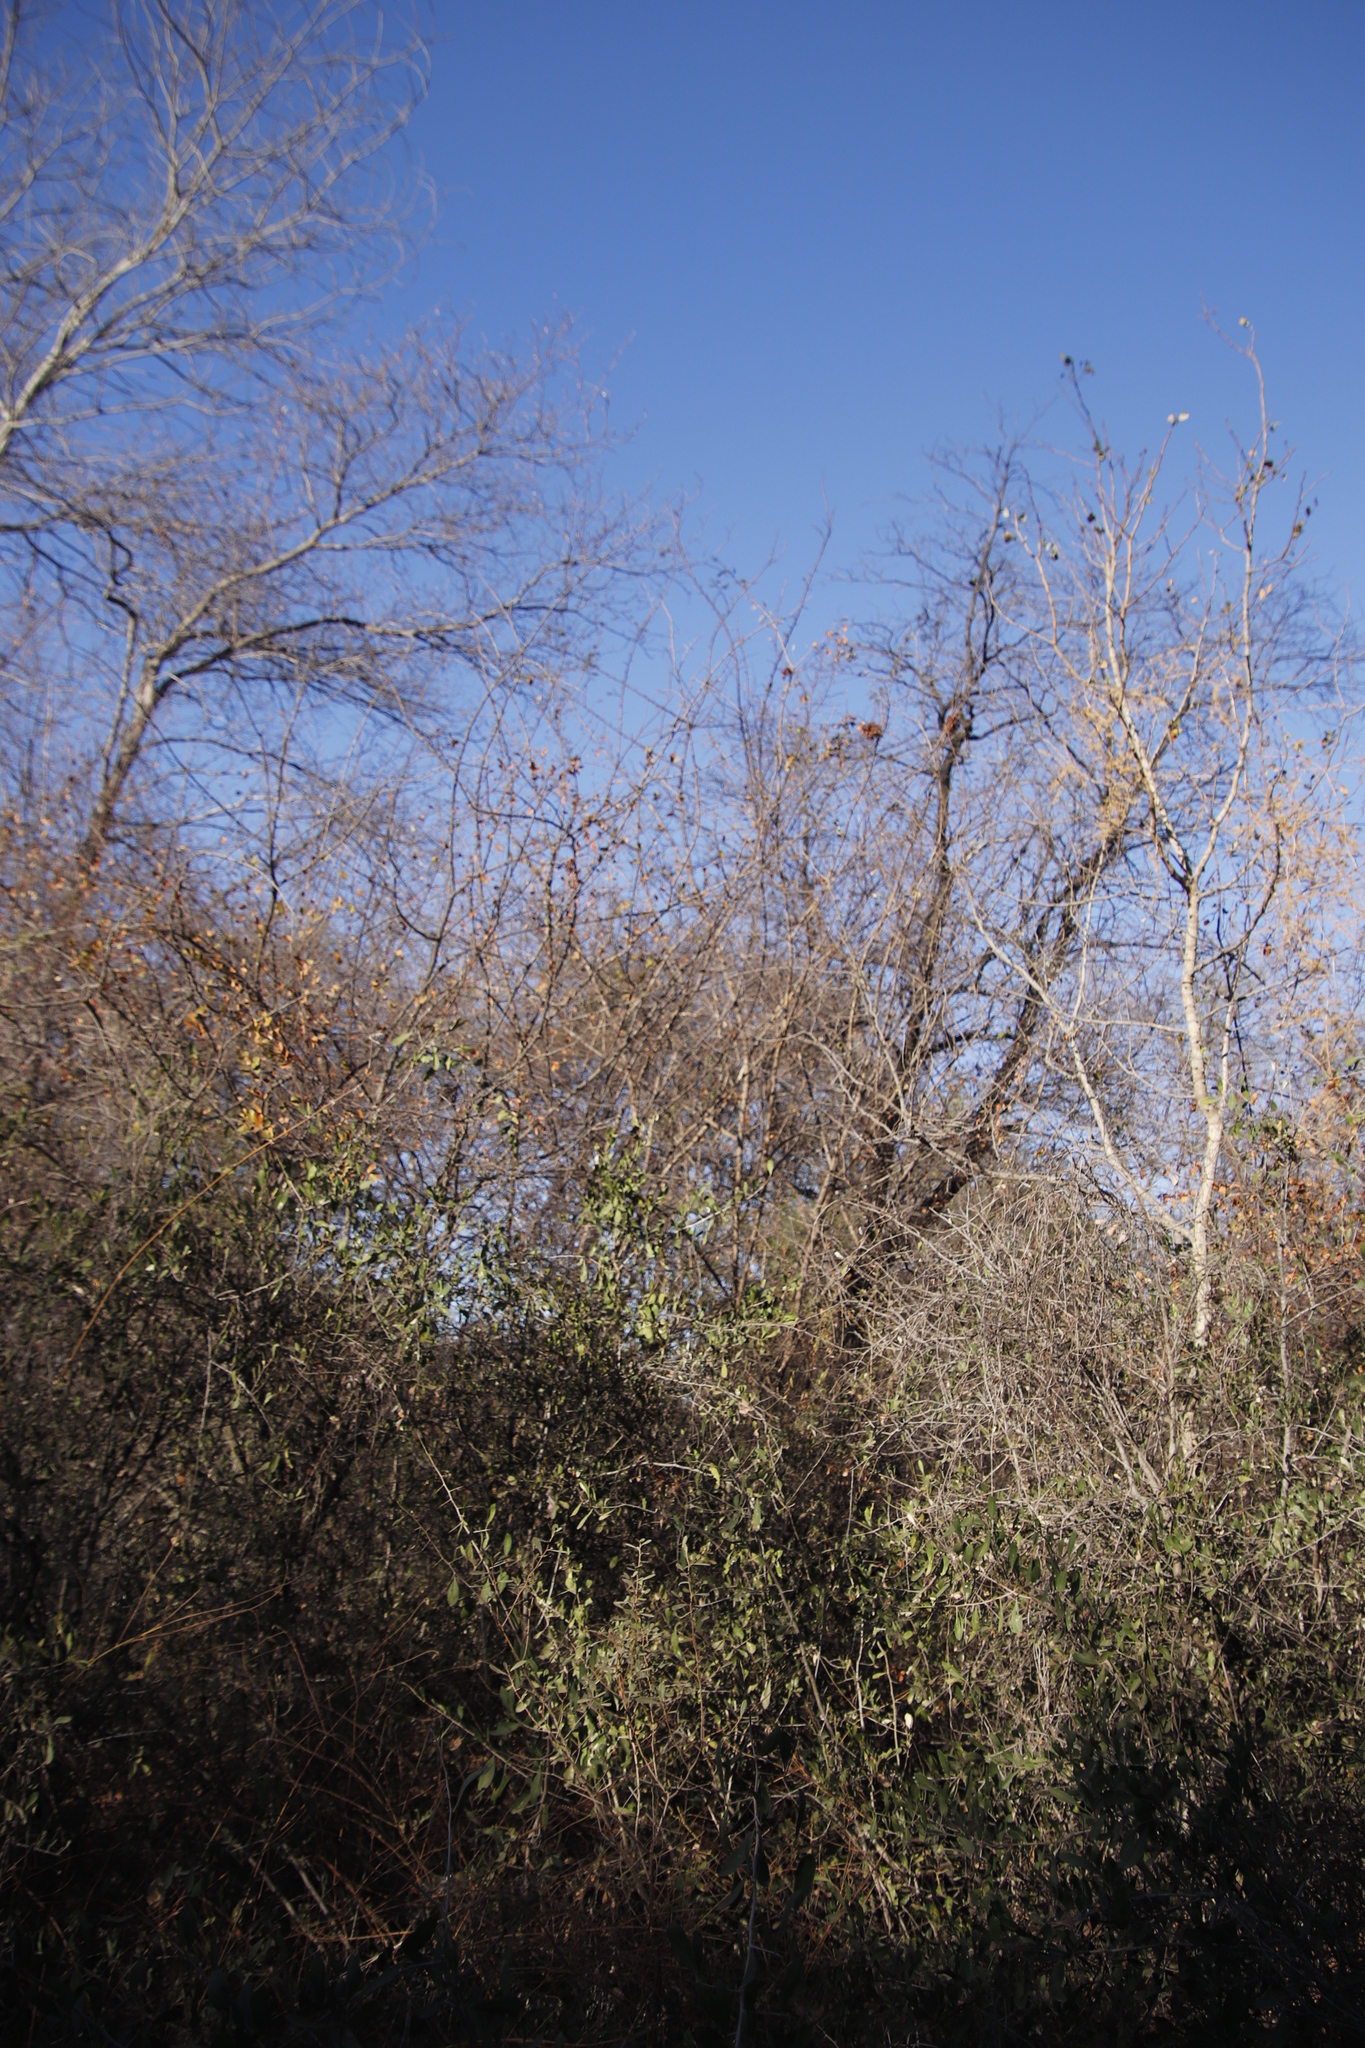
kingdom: Plantae
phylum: Tracheophyta
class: Magnoliopsida
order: Fabales
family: Fabaceae
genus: Dichrostachys
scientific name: Dichrostachys cinerea
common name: Sicklebush
